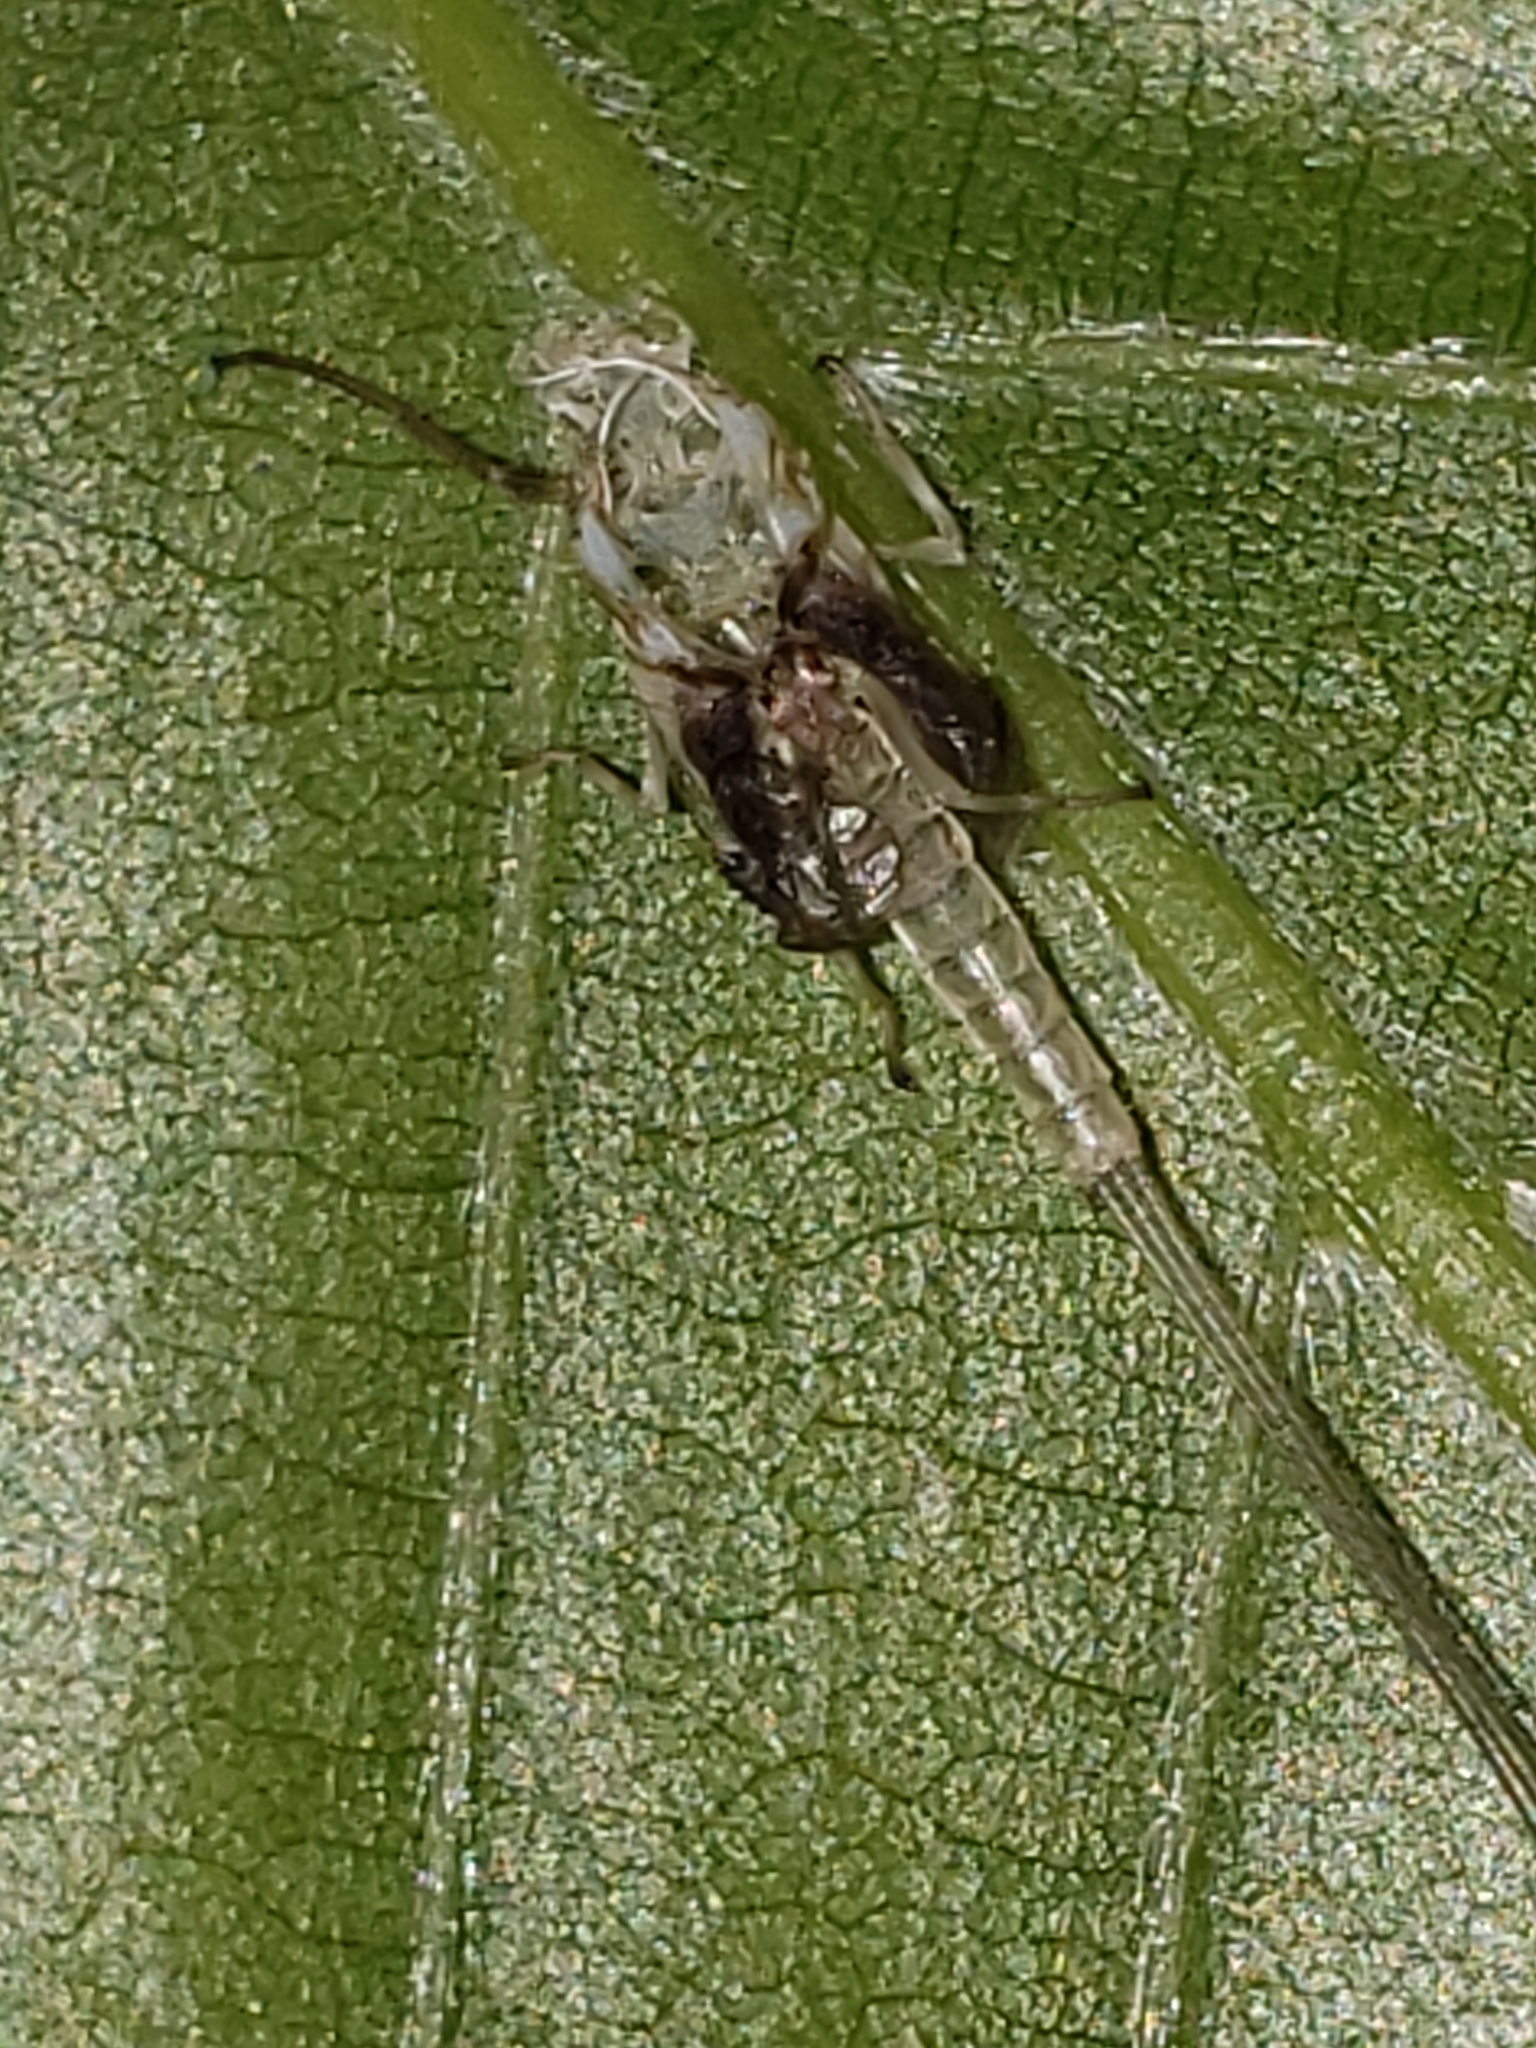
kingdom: Animalia
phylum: Arthropoda
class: Insecta
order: Ephemeroptera
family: Ephemerellidae
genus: Ephemerella
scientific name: Ephemerella needhami
